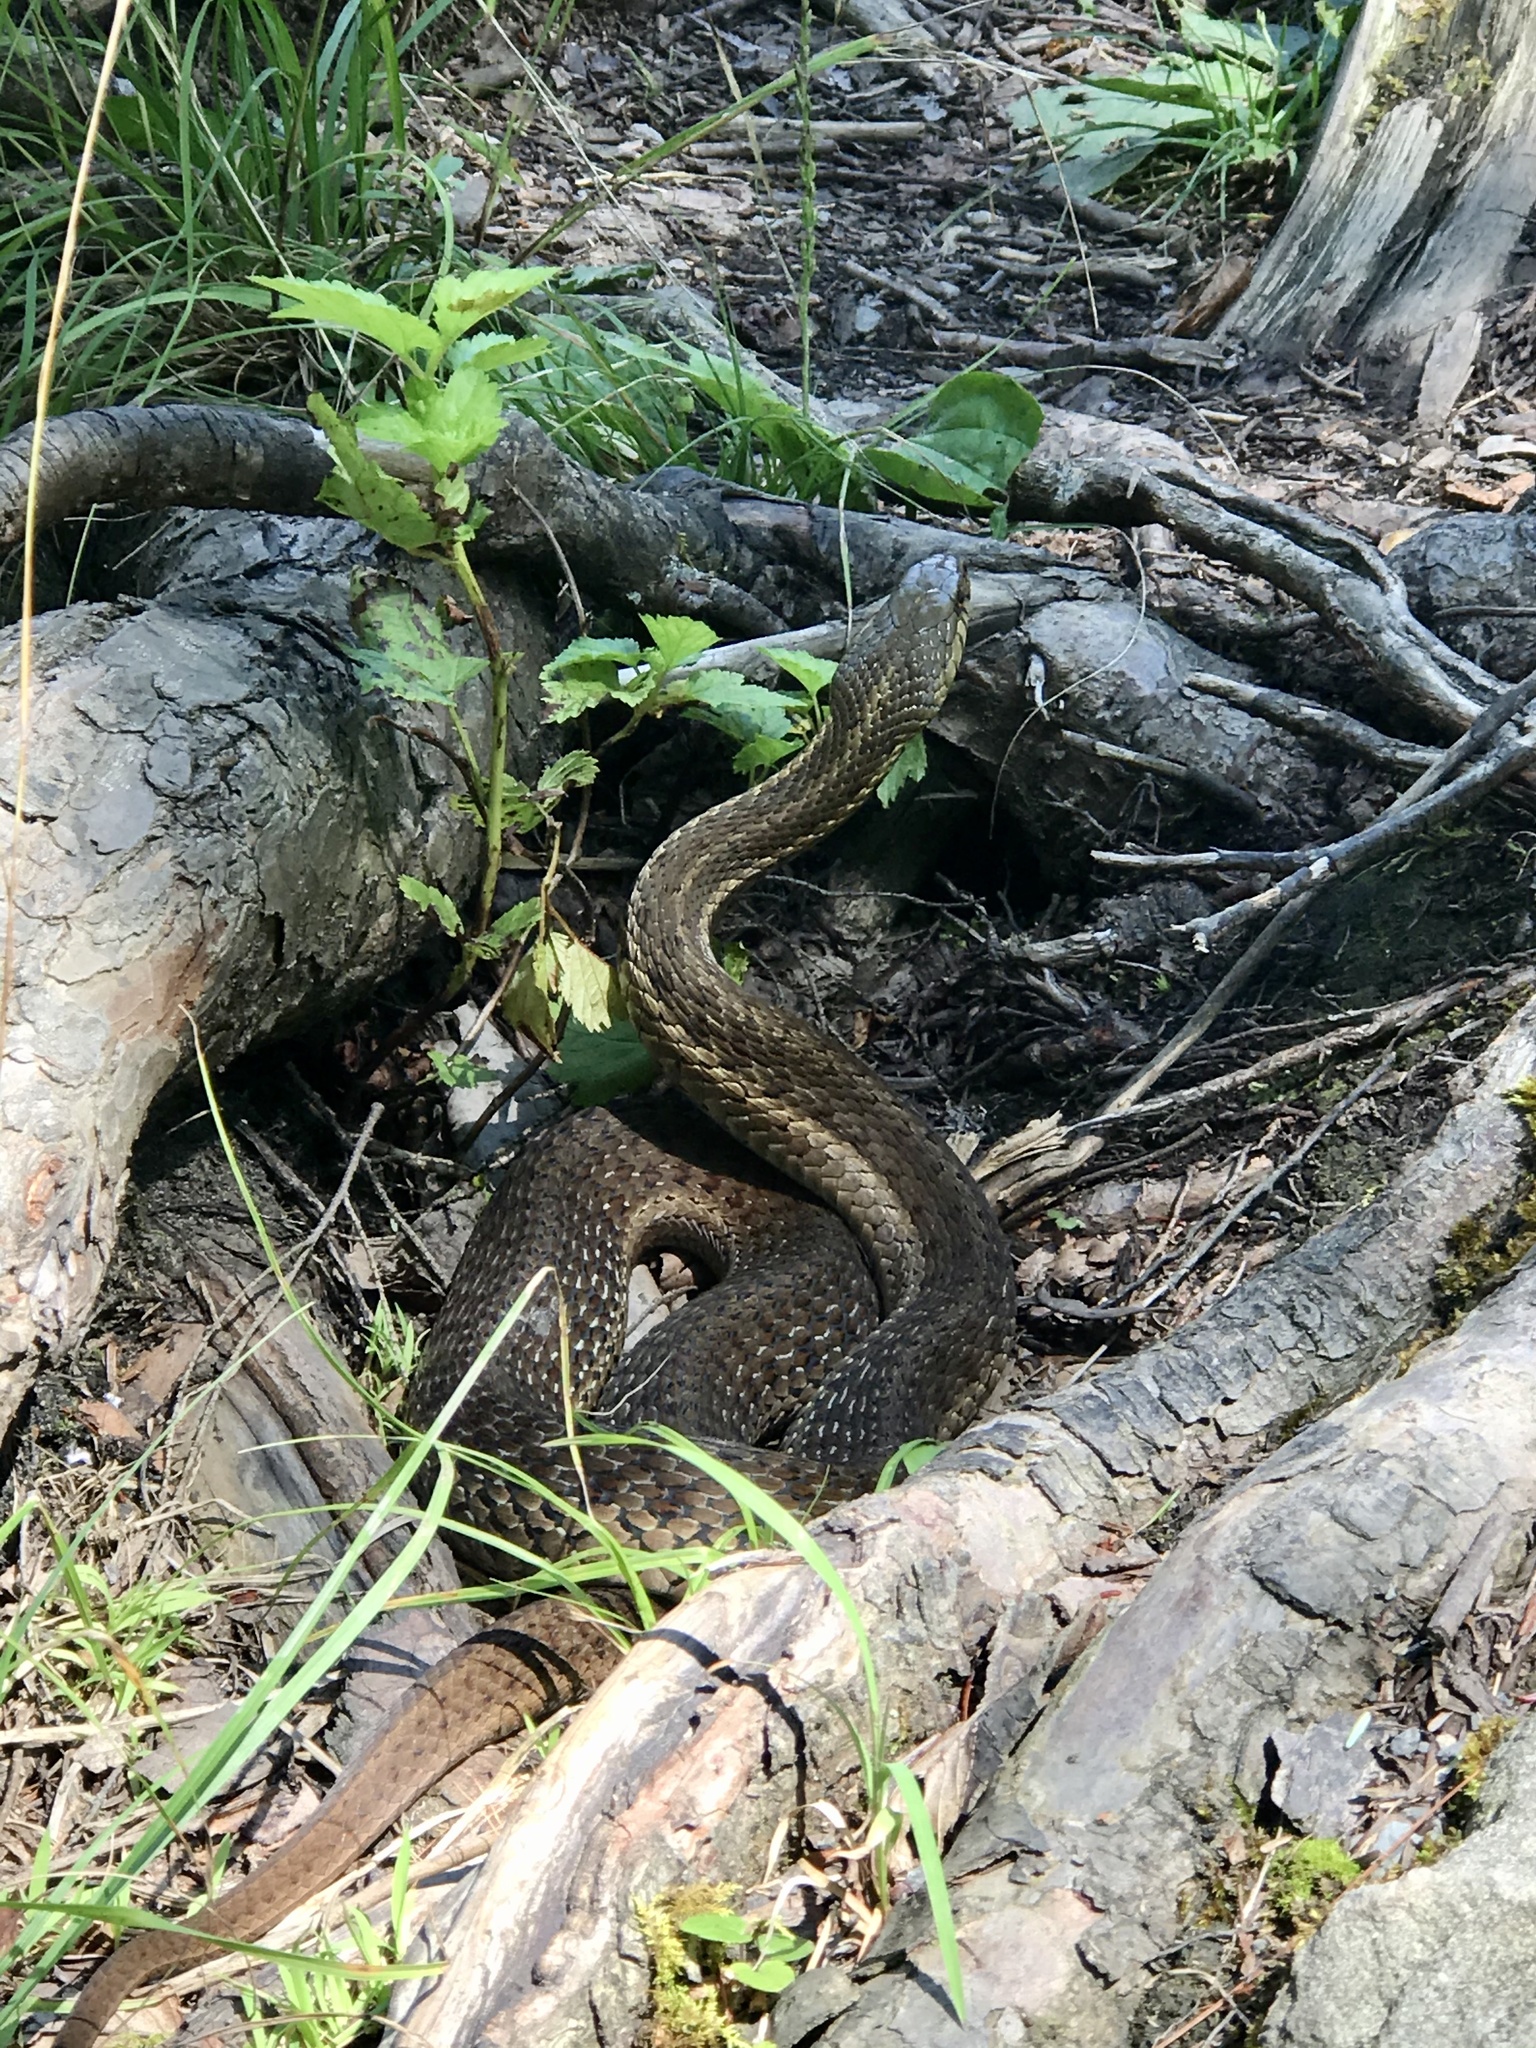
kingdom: Animalia
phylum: Chordata
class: Squamata
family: Colubridae
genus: Thamnophis
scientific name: Thamnophis sirtalis
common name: Common garter snake
